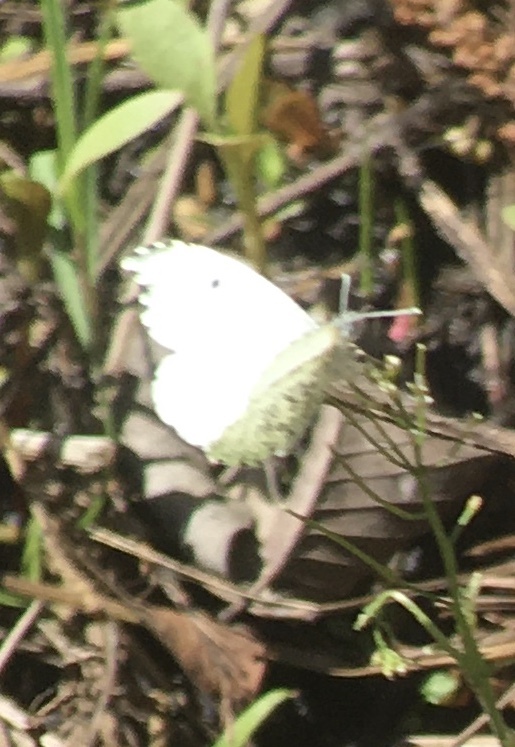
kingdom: Animalia
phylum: Arthropoda
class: Insecta
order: Lepidoptera
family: Pieridae
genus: Anthocharis
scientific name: Anthocharis midea
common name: Falcate orangetip
